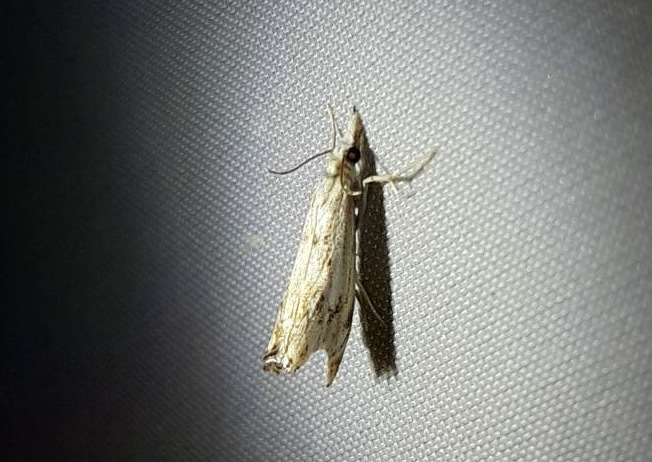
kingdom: Animalia
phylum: Arthropoda
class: Insecta
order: Lepidoptera
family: Crambidae
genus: Catoptria
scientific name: Catoptria falsella
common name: Chequered grass-veneer
